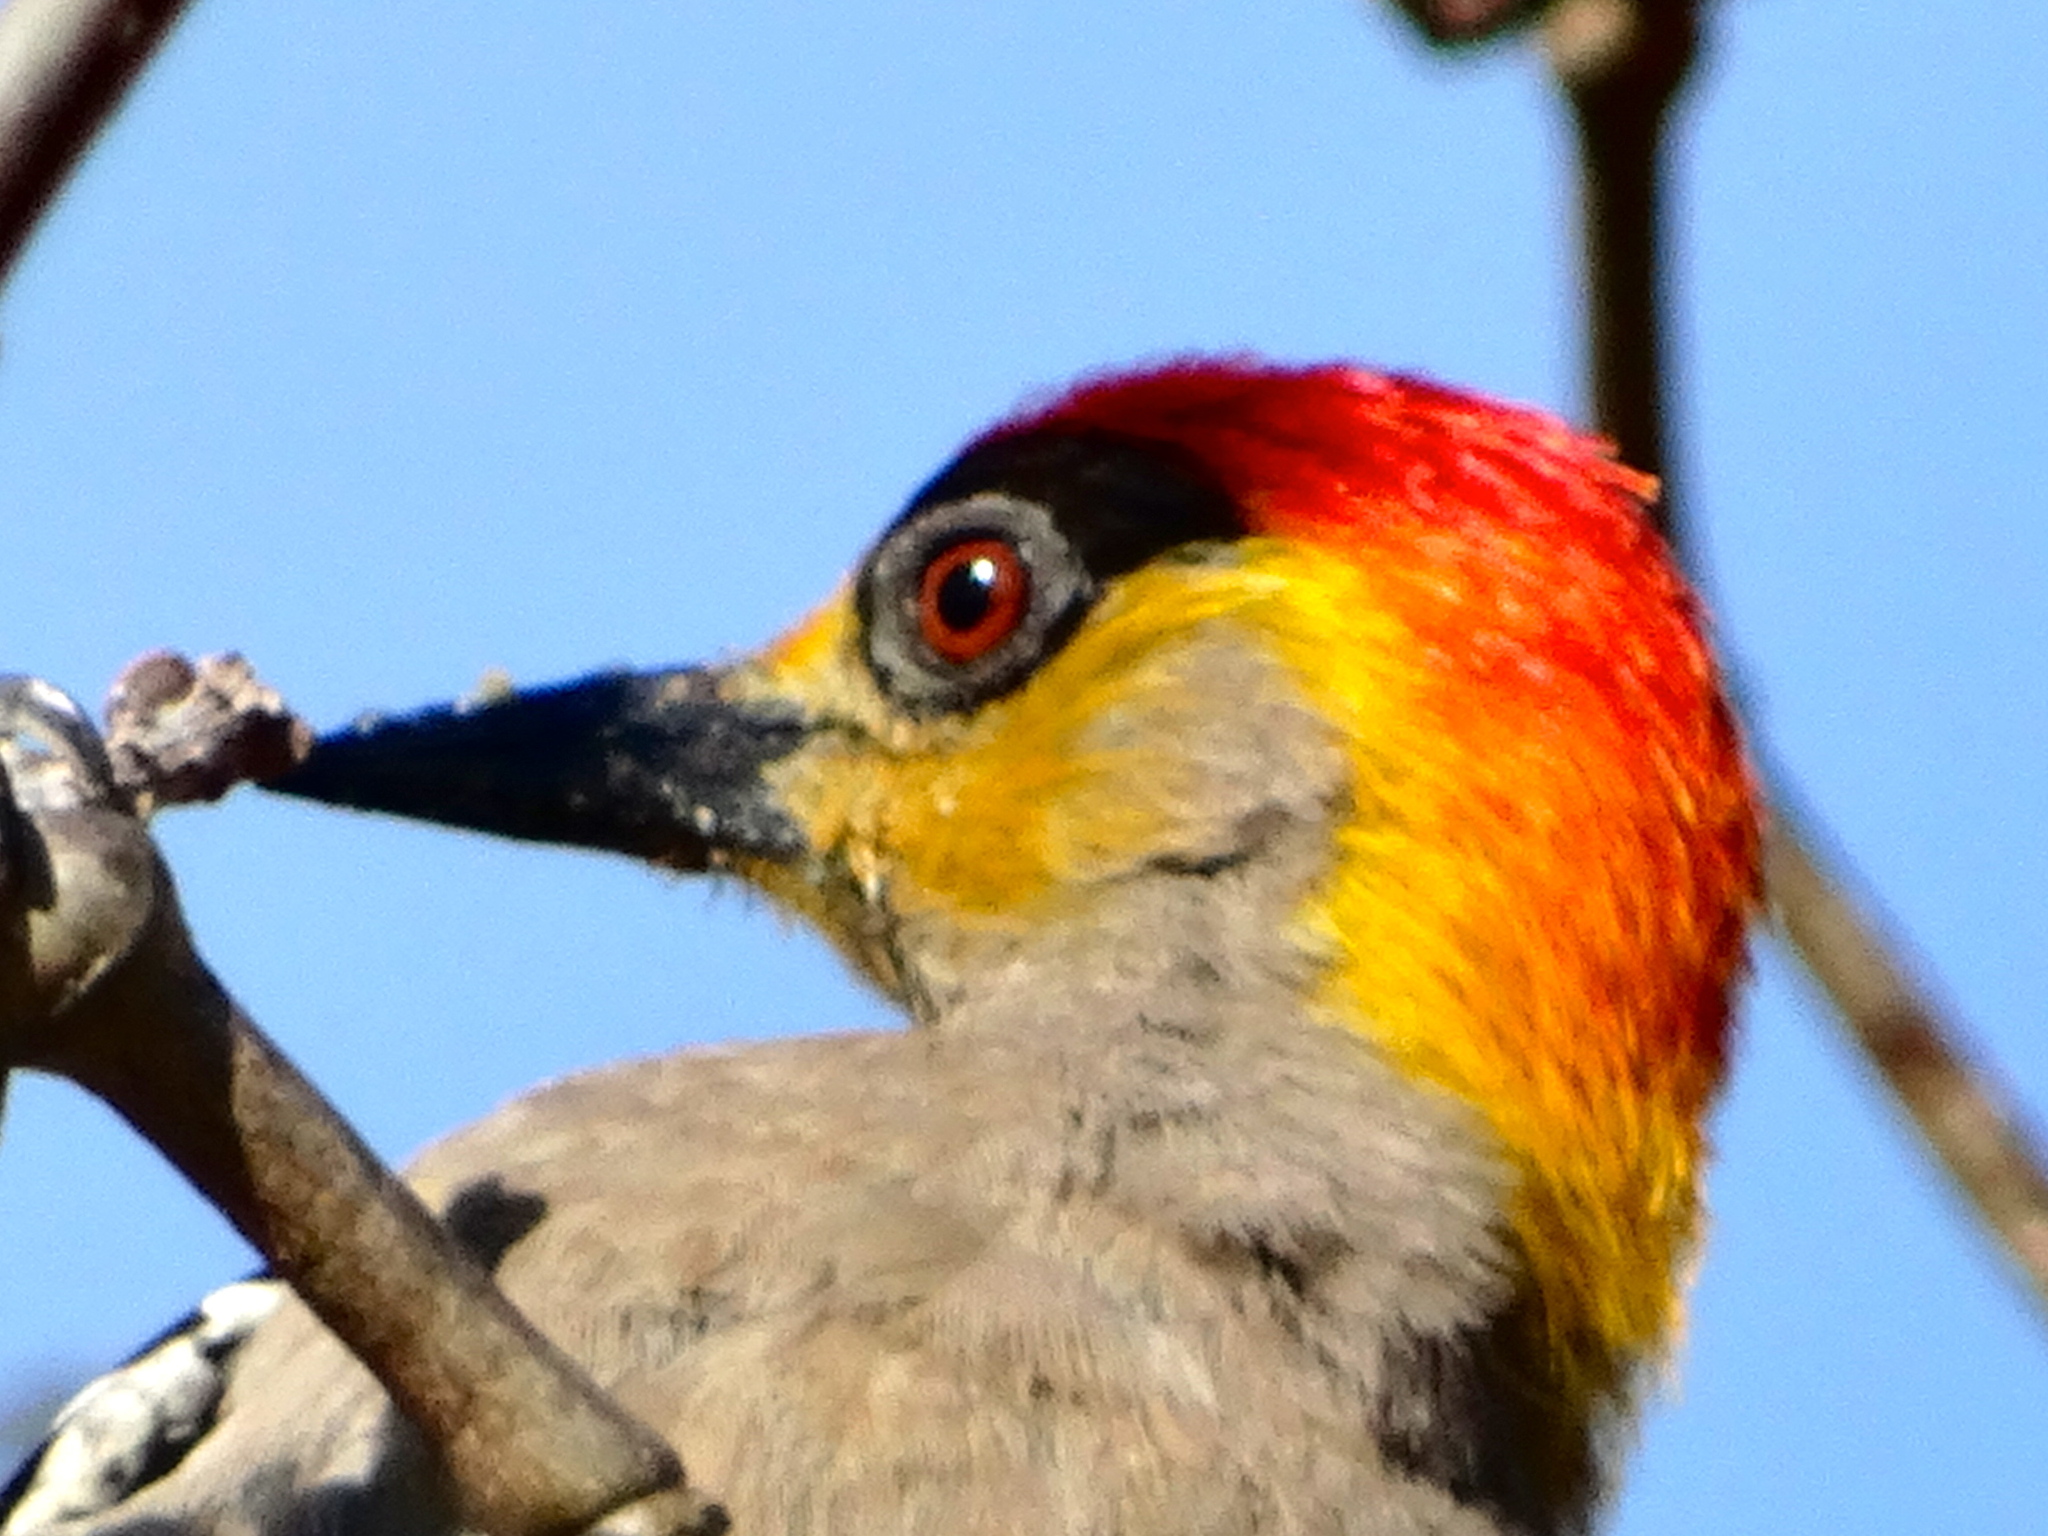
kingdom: Animalia
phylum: Chordata
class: Aves
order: Piciformes
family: Picidae
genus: Melanerpes
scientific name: Melanerpes chrysogenys
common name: Golden-cheeked woodpecker
